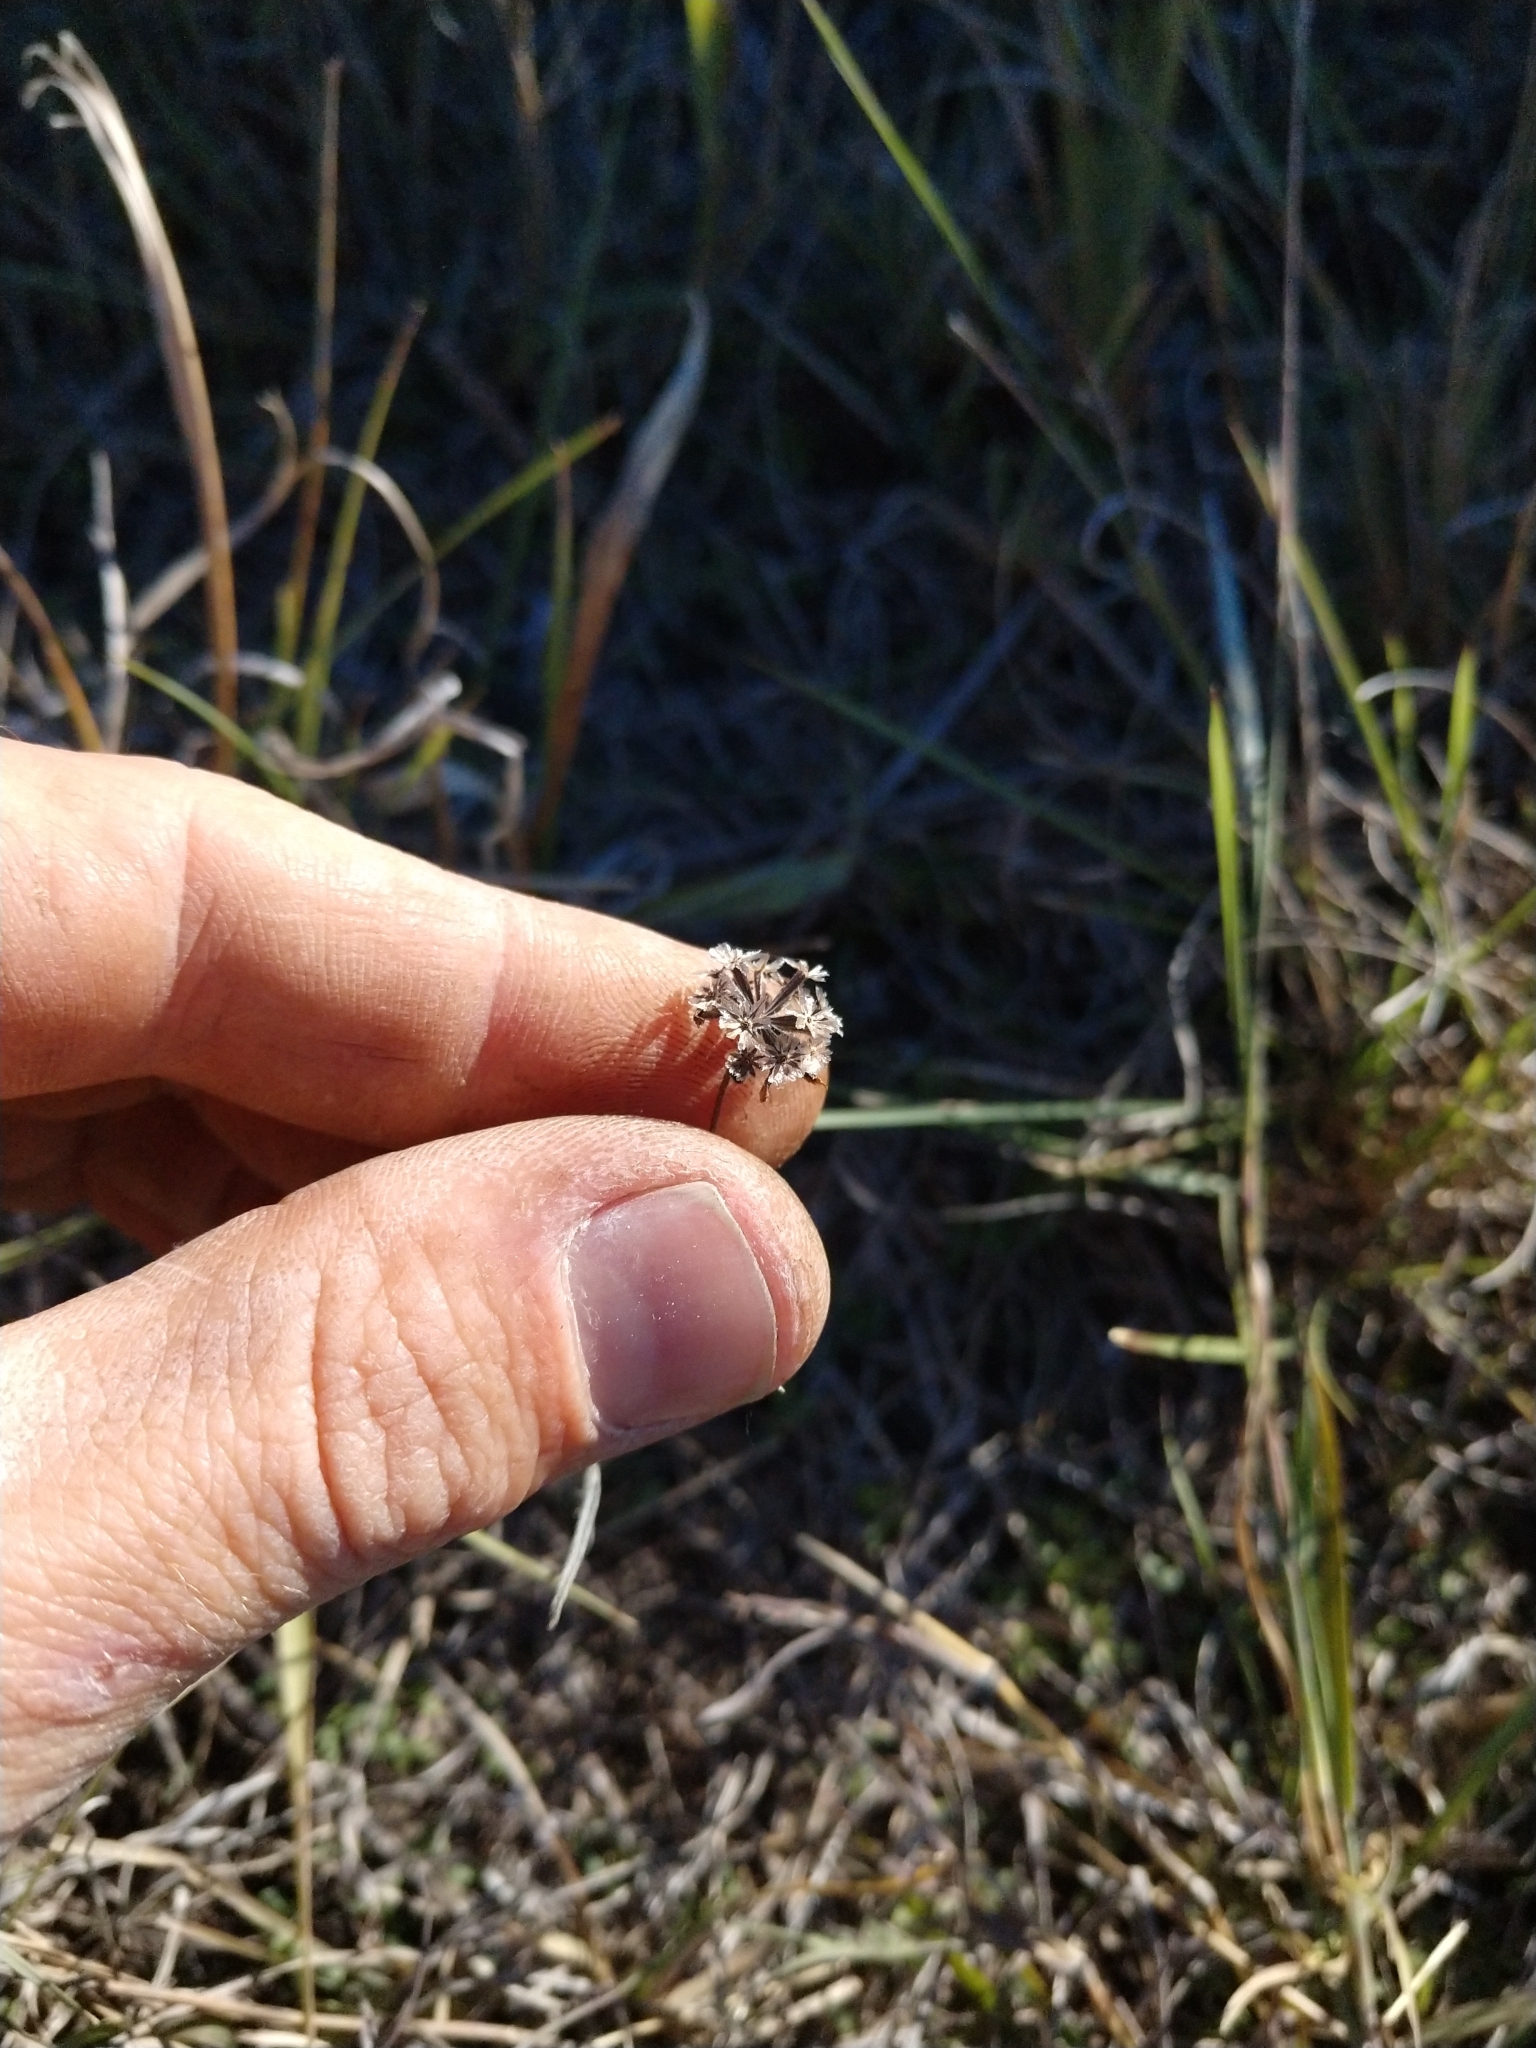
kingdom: Plantae
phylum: Tracheophyta
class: Magnoliopsida
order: Asterales
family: Asteraceae
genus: Palafoxia
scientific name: Palafoxia rosea
